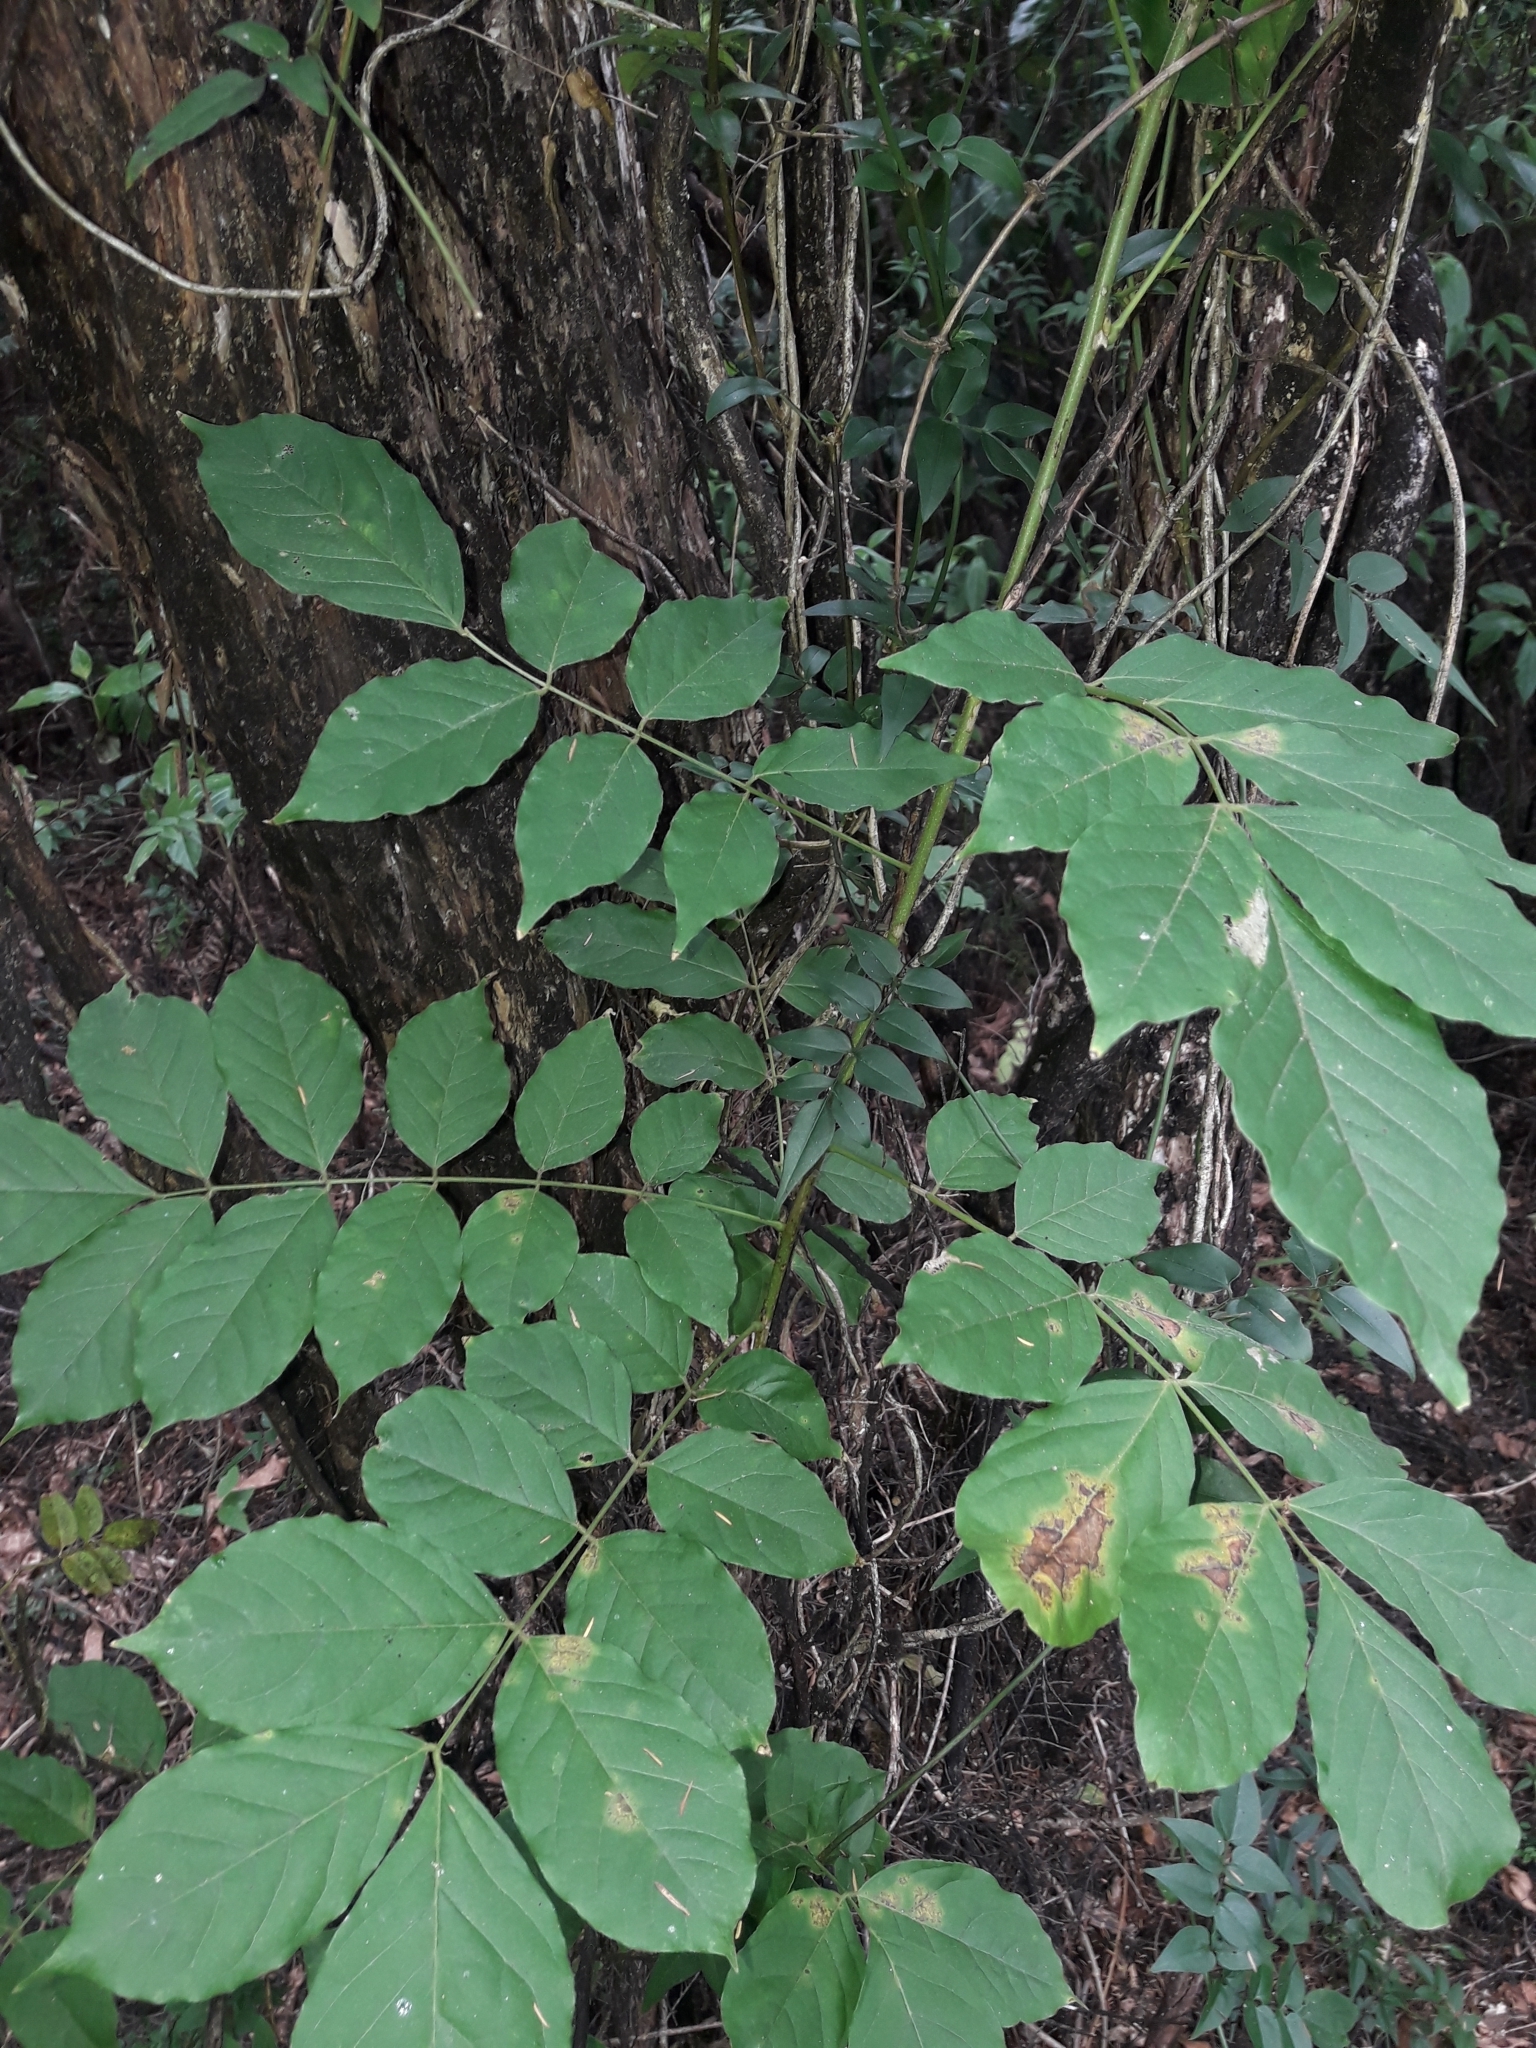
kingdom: Plantae
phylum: Tracheophyta
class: Magnoliopsida
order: Fabales
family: Fabaceae
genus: Wisteria
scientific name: Wisteria sinensis
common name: Chinese wisteria
